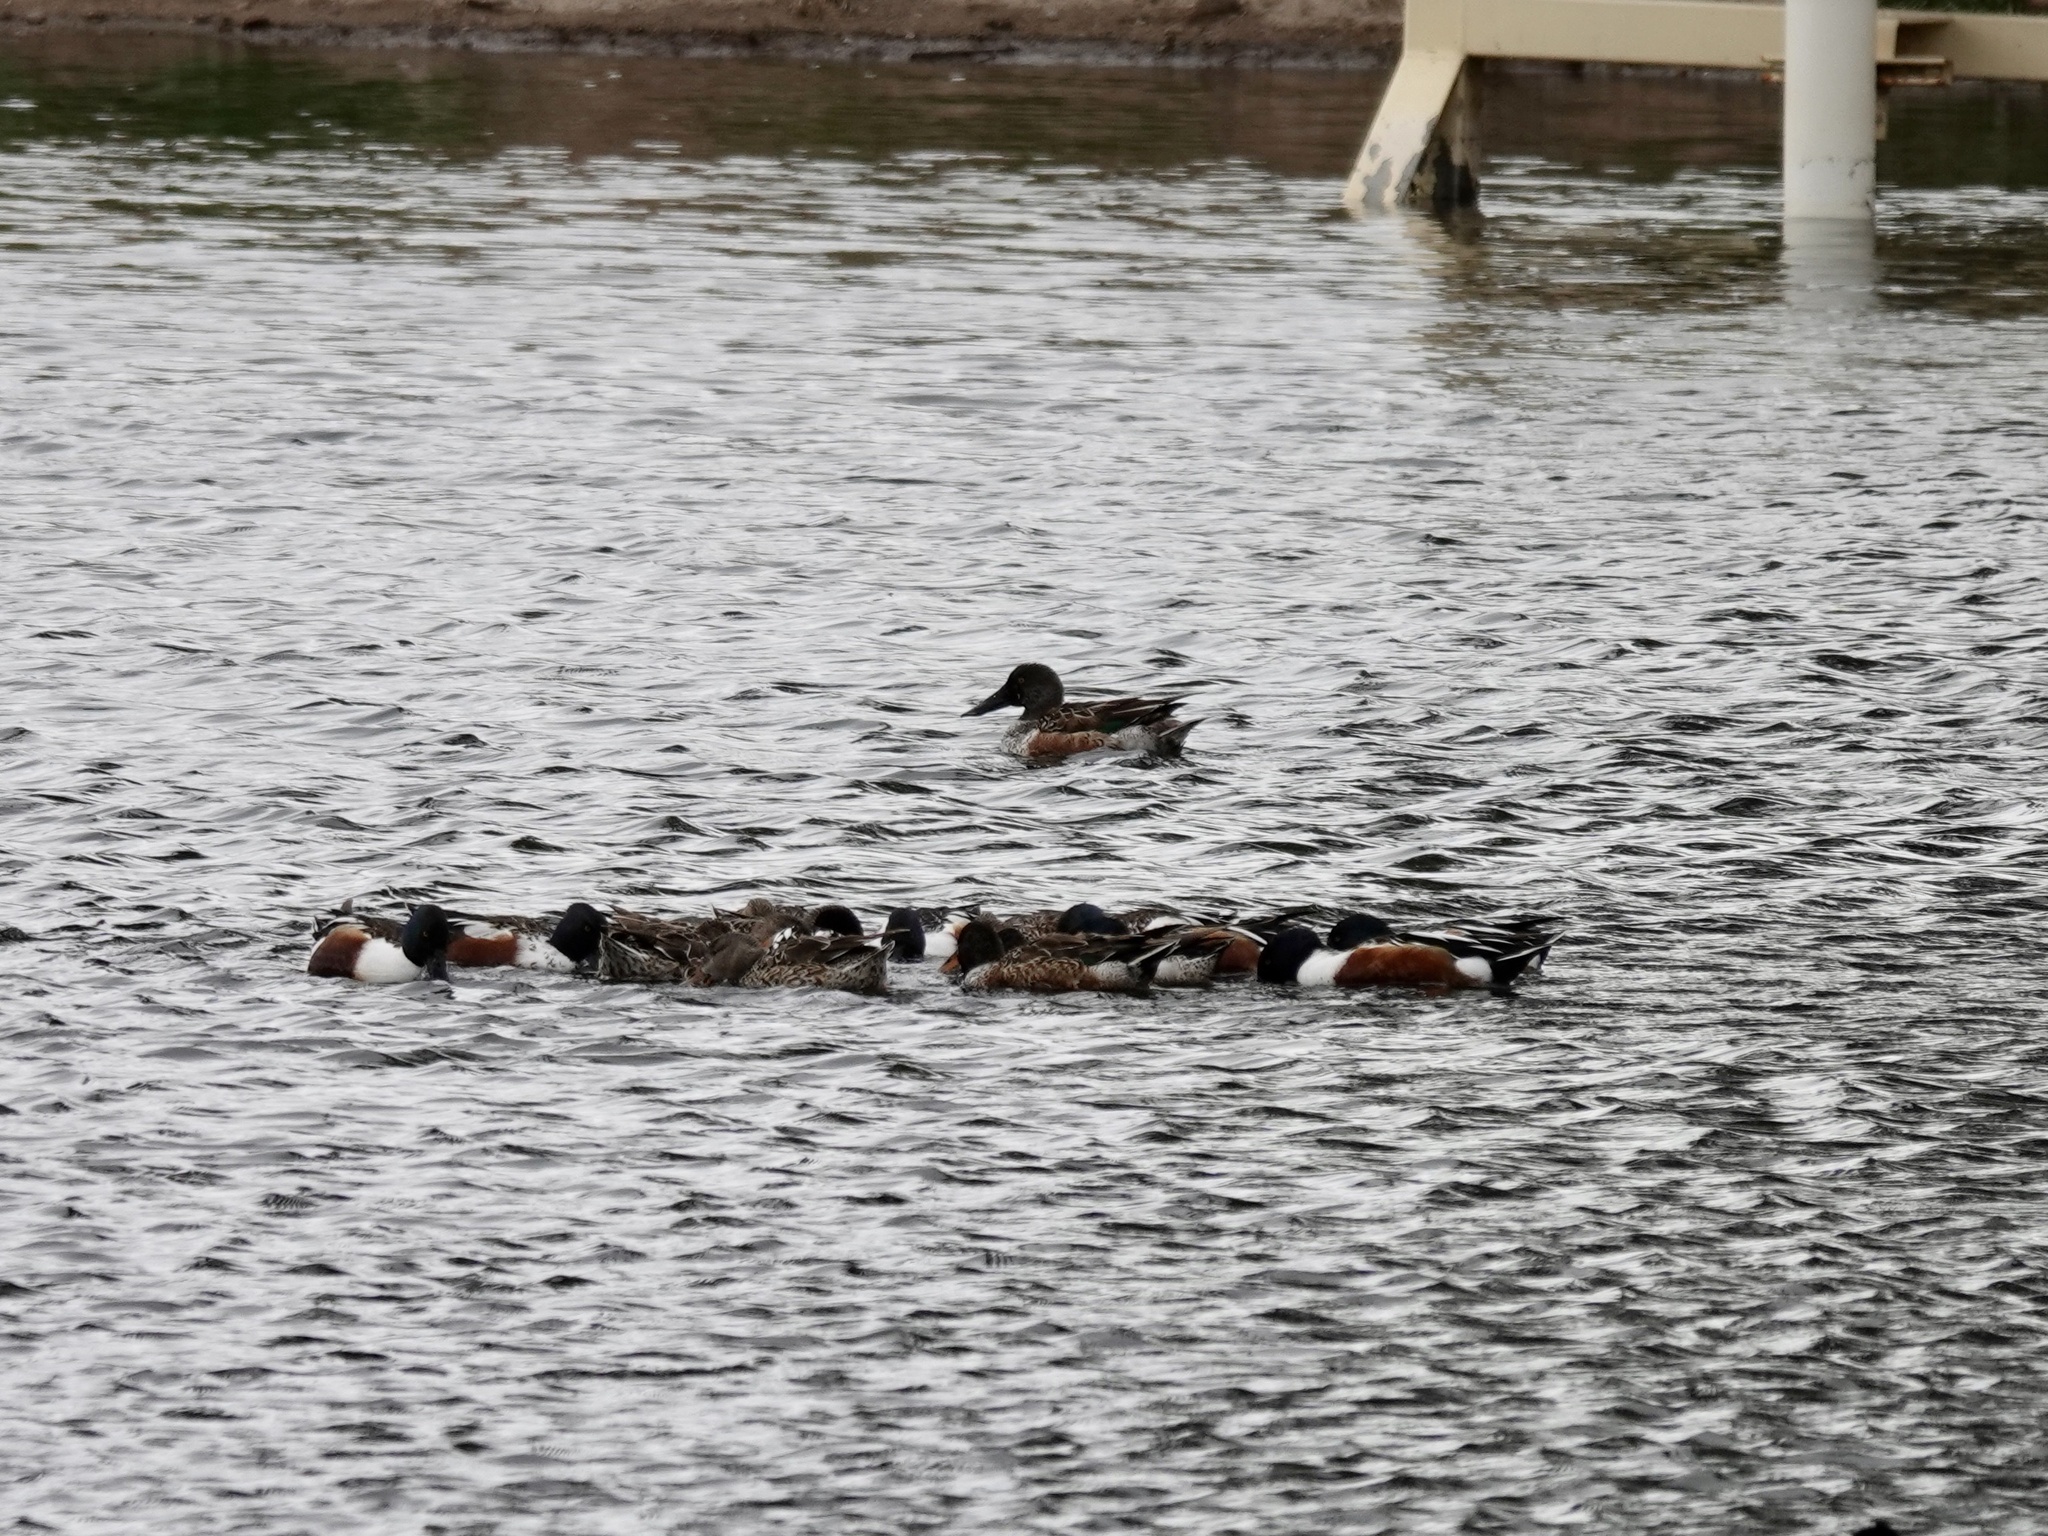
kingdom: Animalia
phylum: Chordata
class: Aves
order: Anseriformes
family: Anatidae
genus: Spatula
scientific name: Spatula clypeata
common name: Northern shoveler
